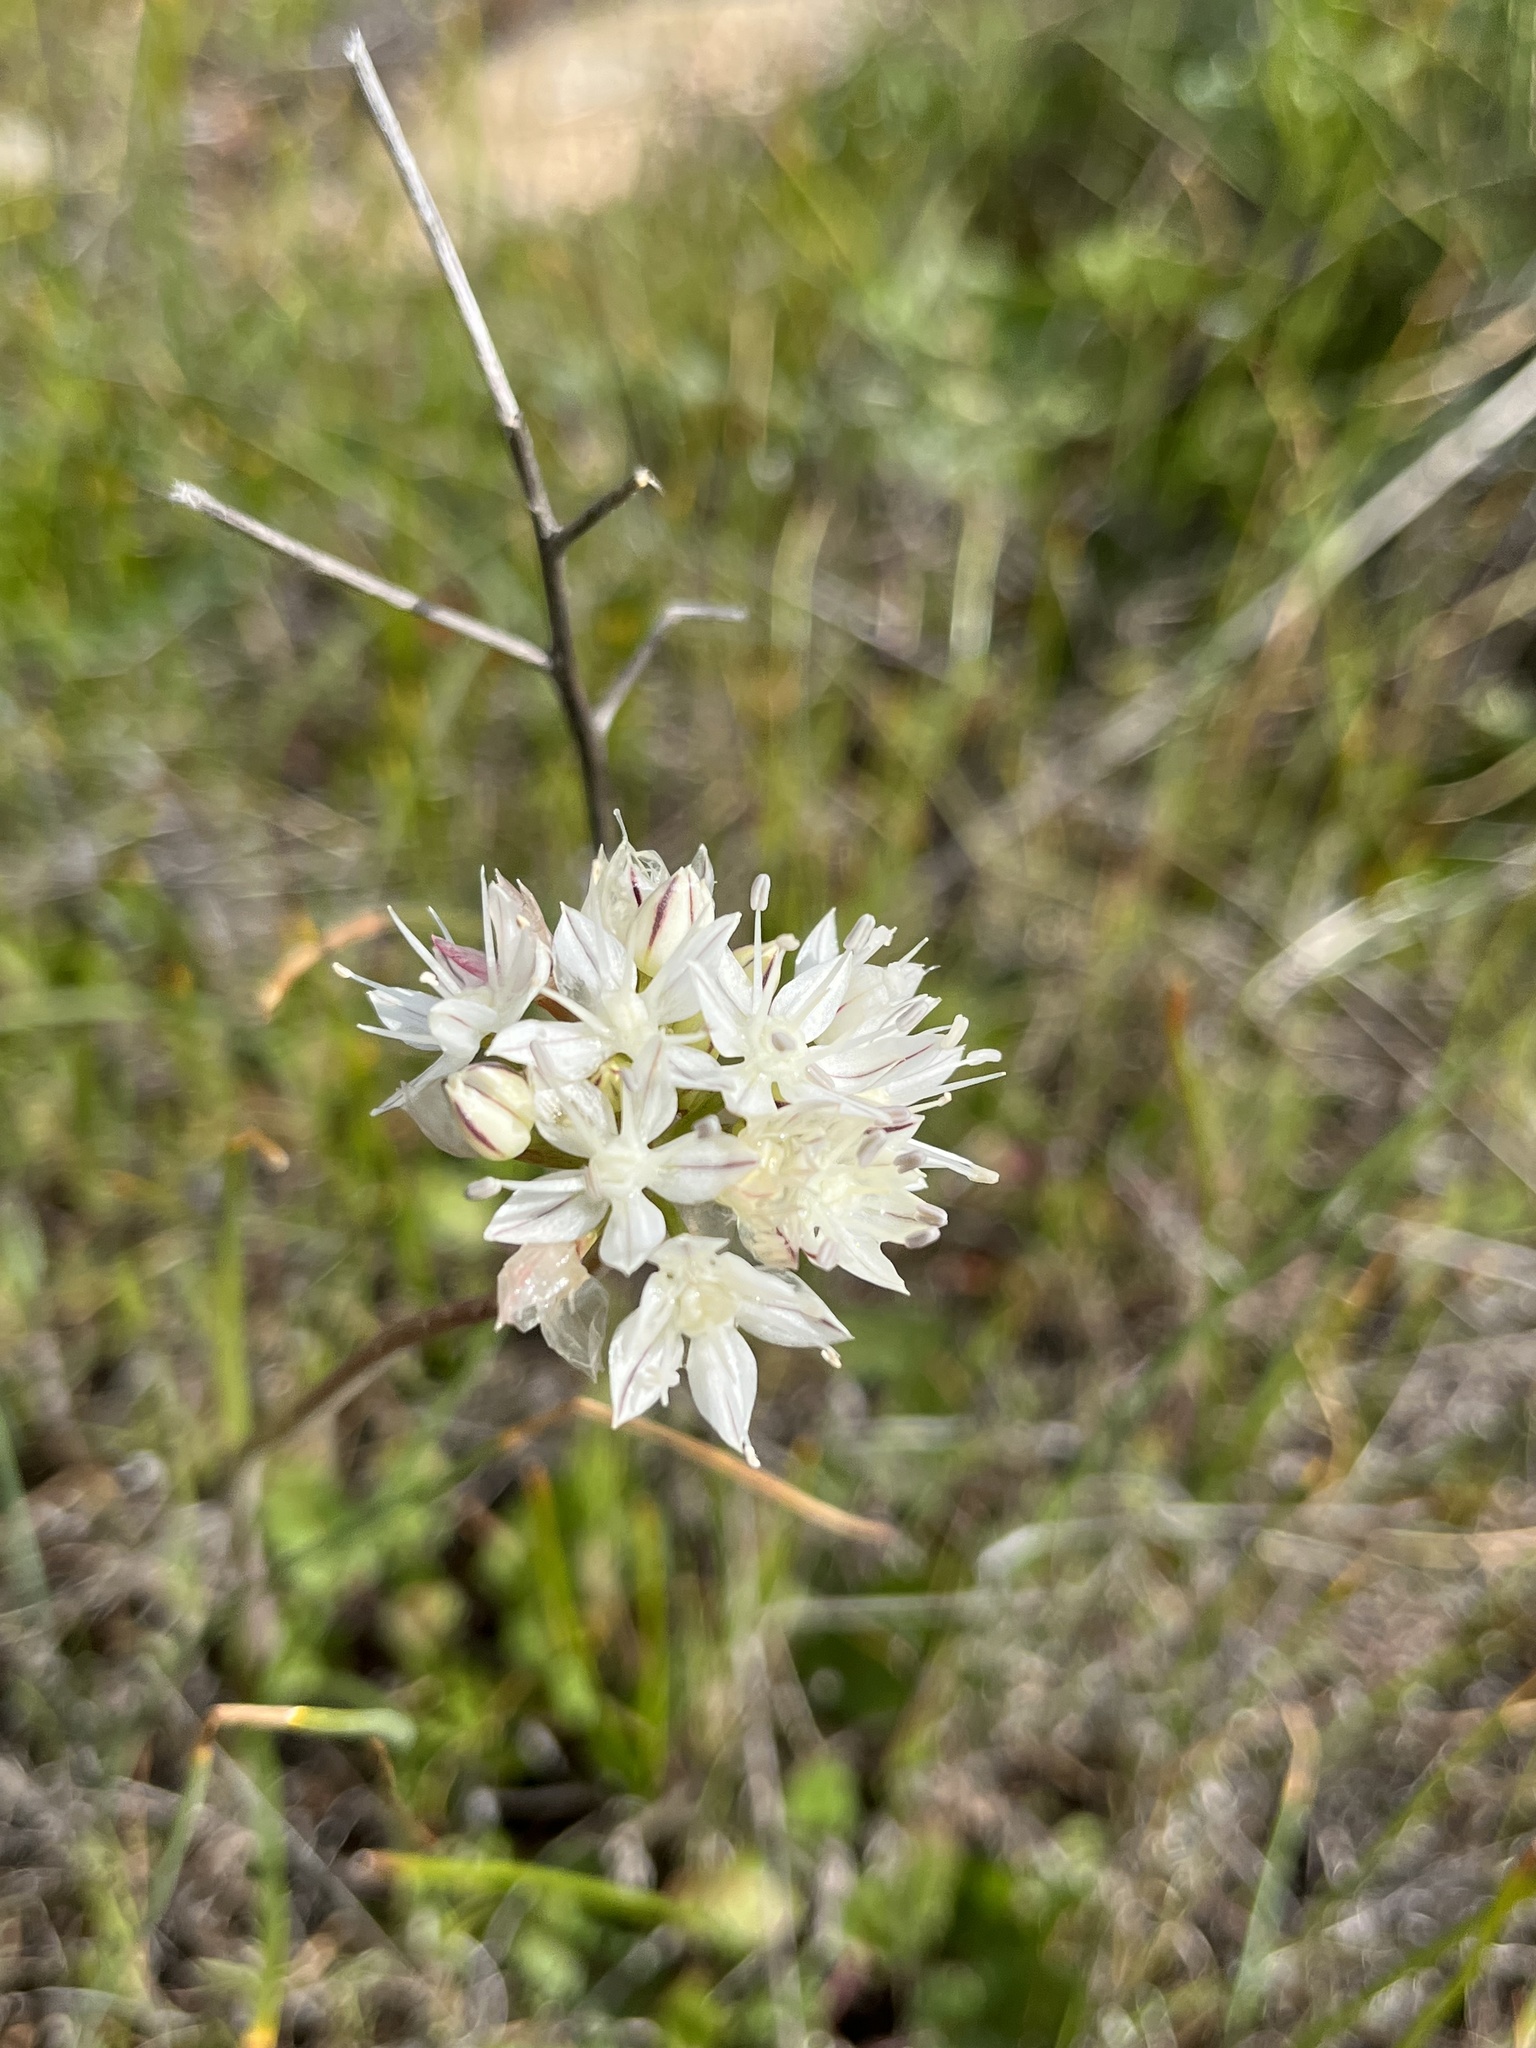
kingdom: Plantae
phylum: Tracheophyta
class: Liliopsida
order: Asparagales
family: Amaryllidaceae
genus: Allium
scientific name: Allium haematochiton
